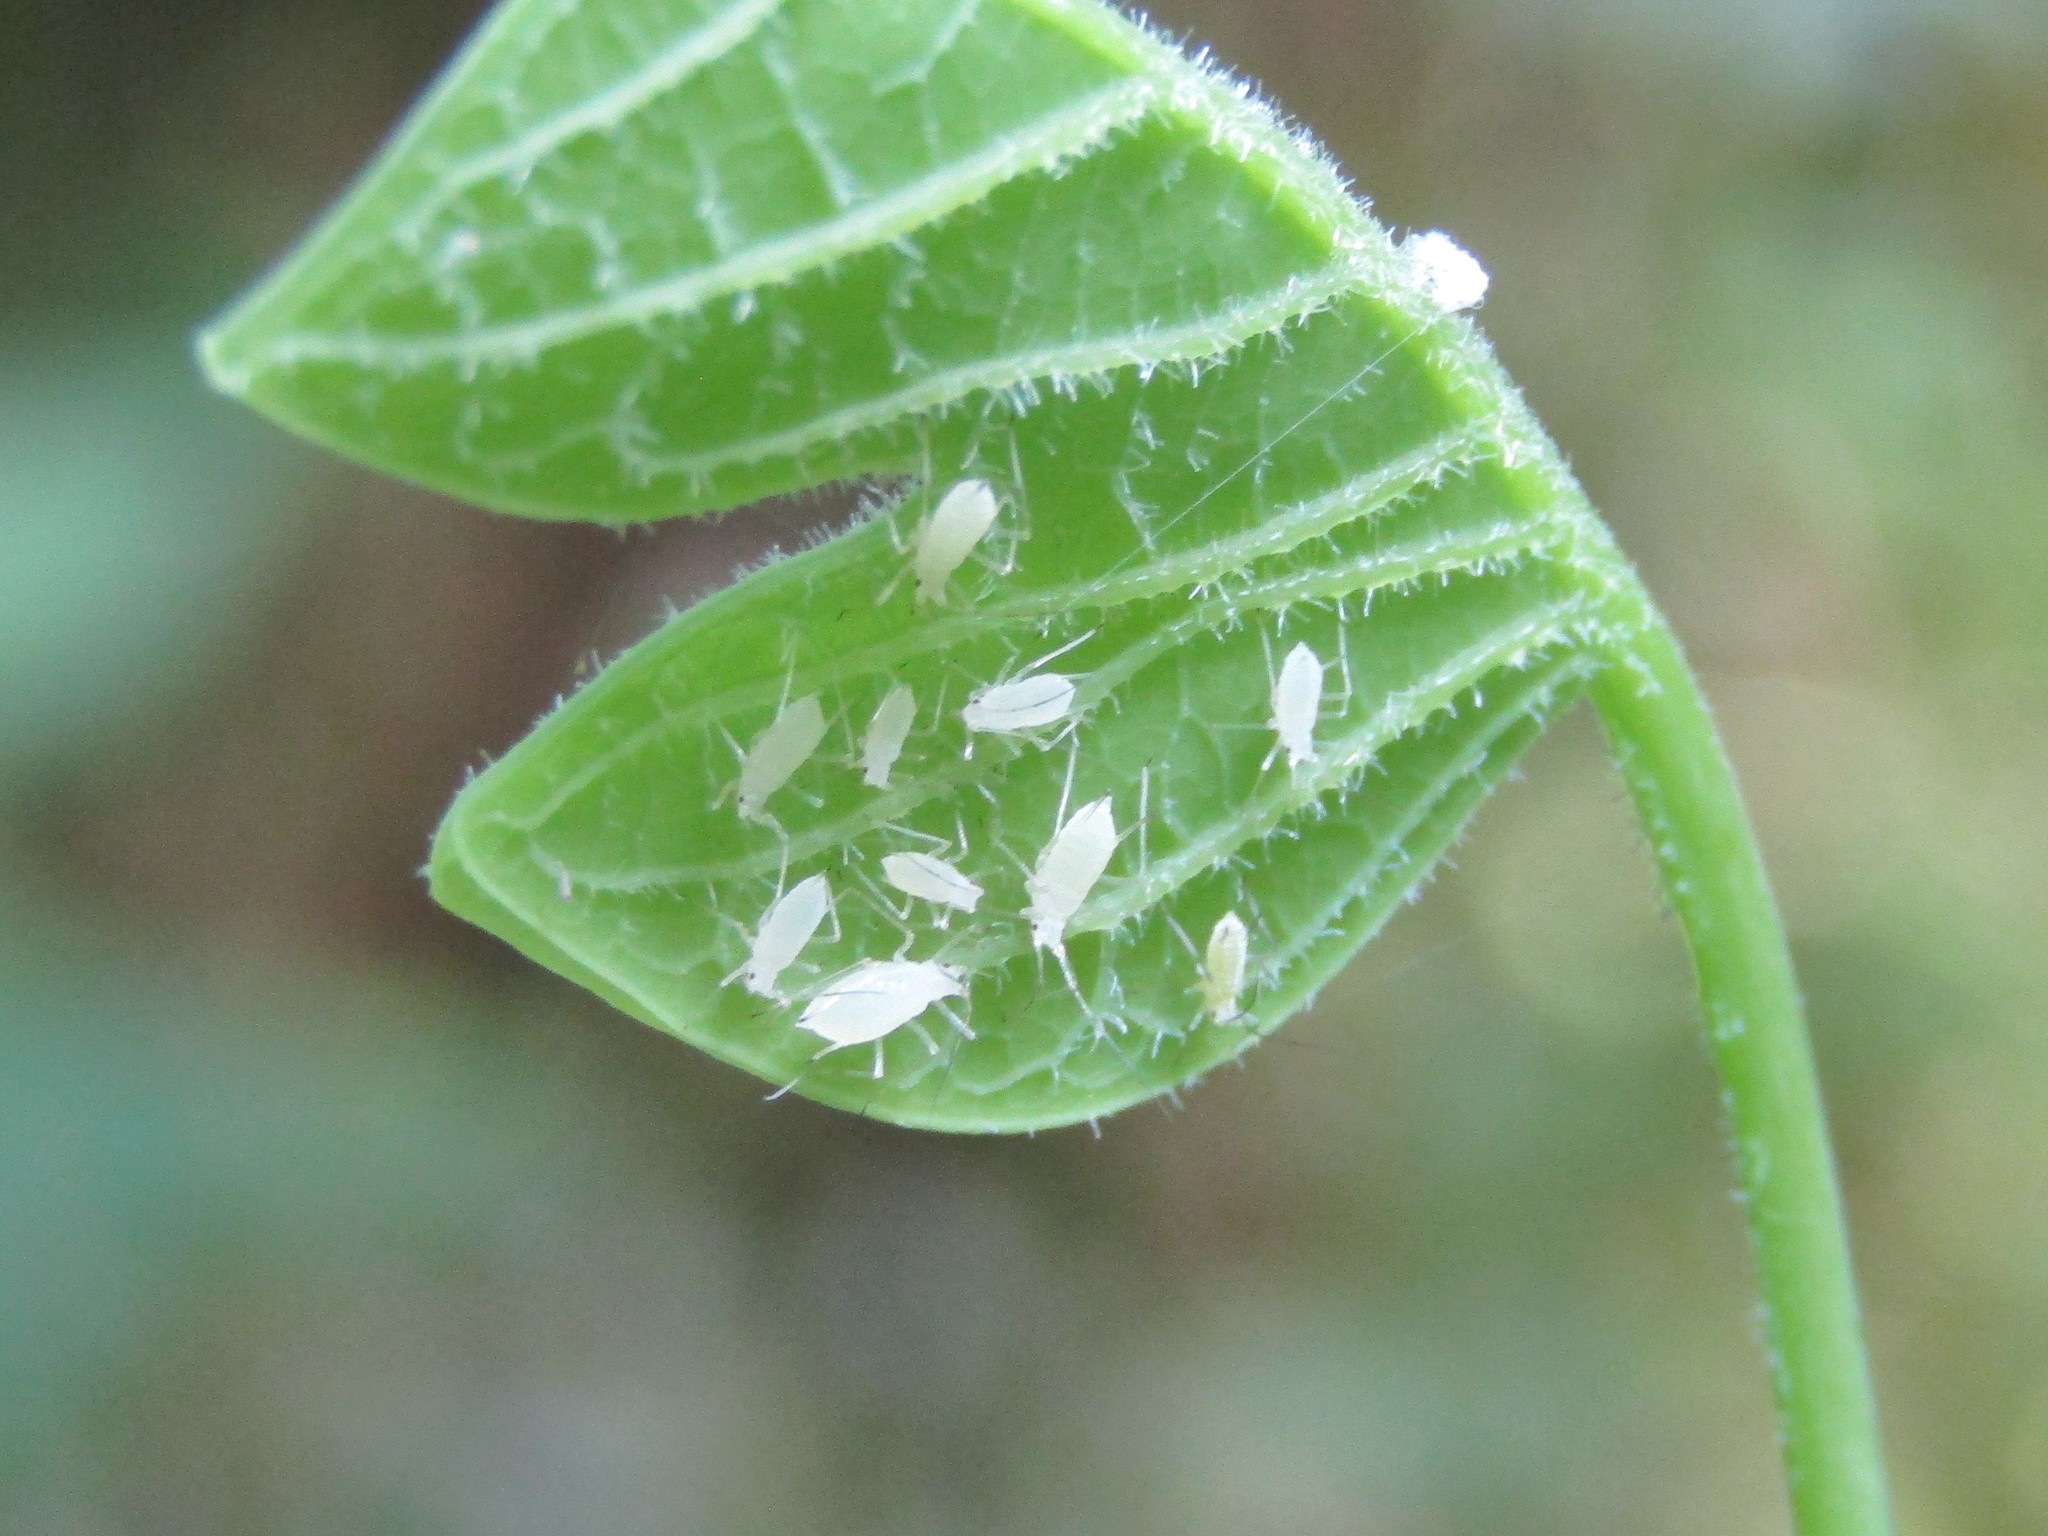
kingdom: Animalia
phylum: Arthropoda
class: Insecta
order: Hemiptera
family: Aphididae
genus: Illinoia
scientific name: Illinoia liriodendri
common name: Tuliptree aphid
